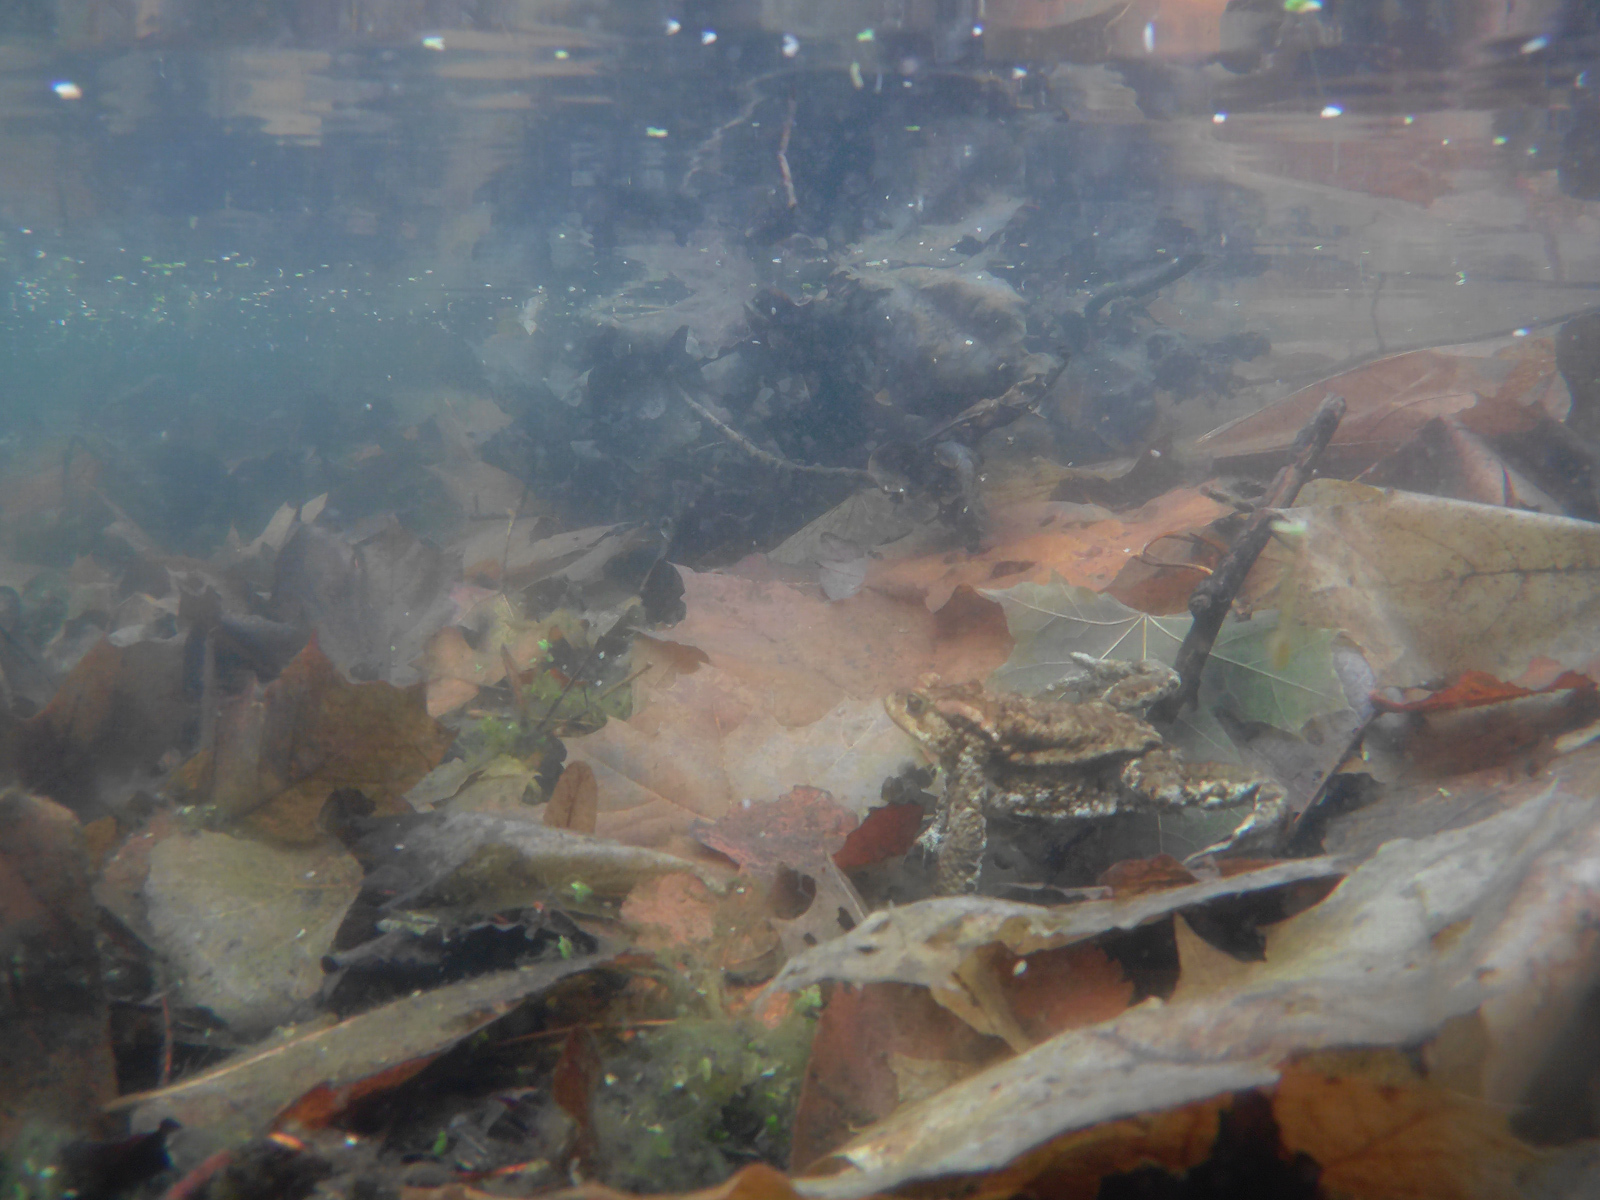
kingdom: Animalia
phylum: Chordata
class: Amphibia
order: Anura
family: Bufonidae
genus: Bufo
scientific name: Bufo bufo
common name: Common toad
